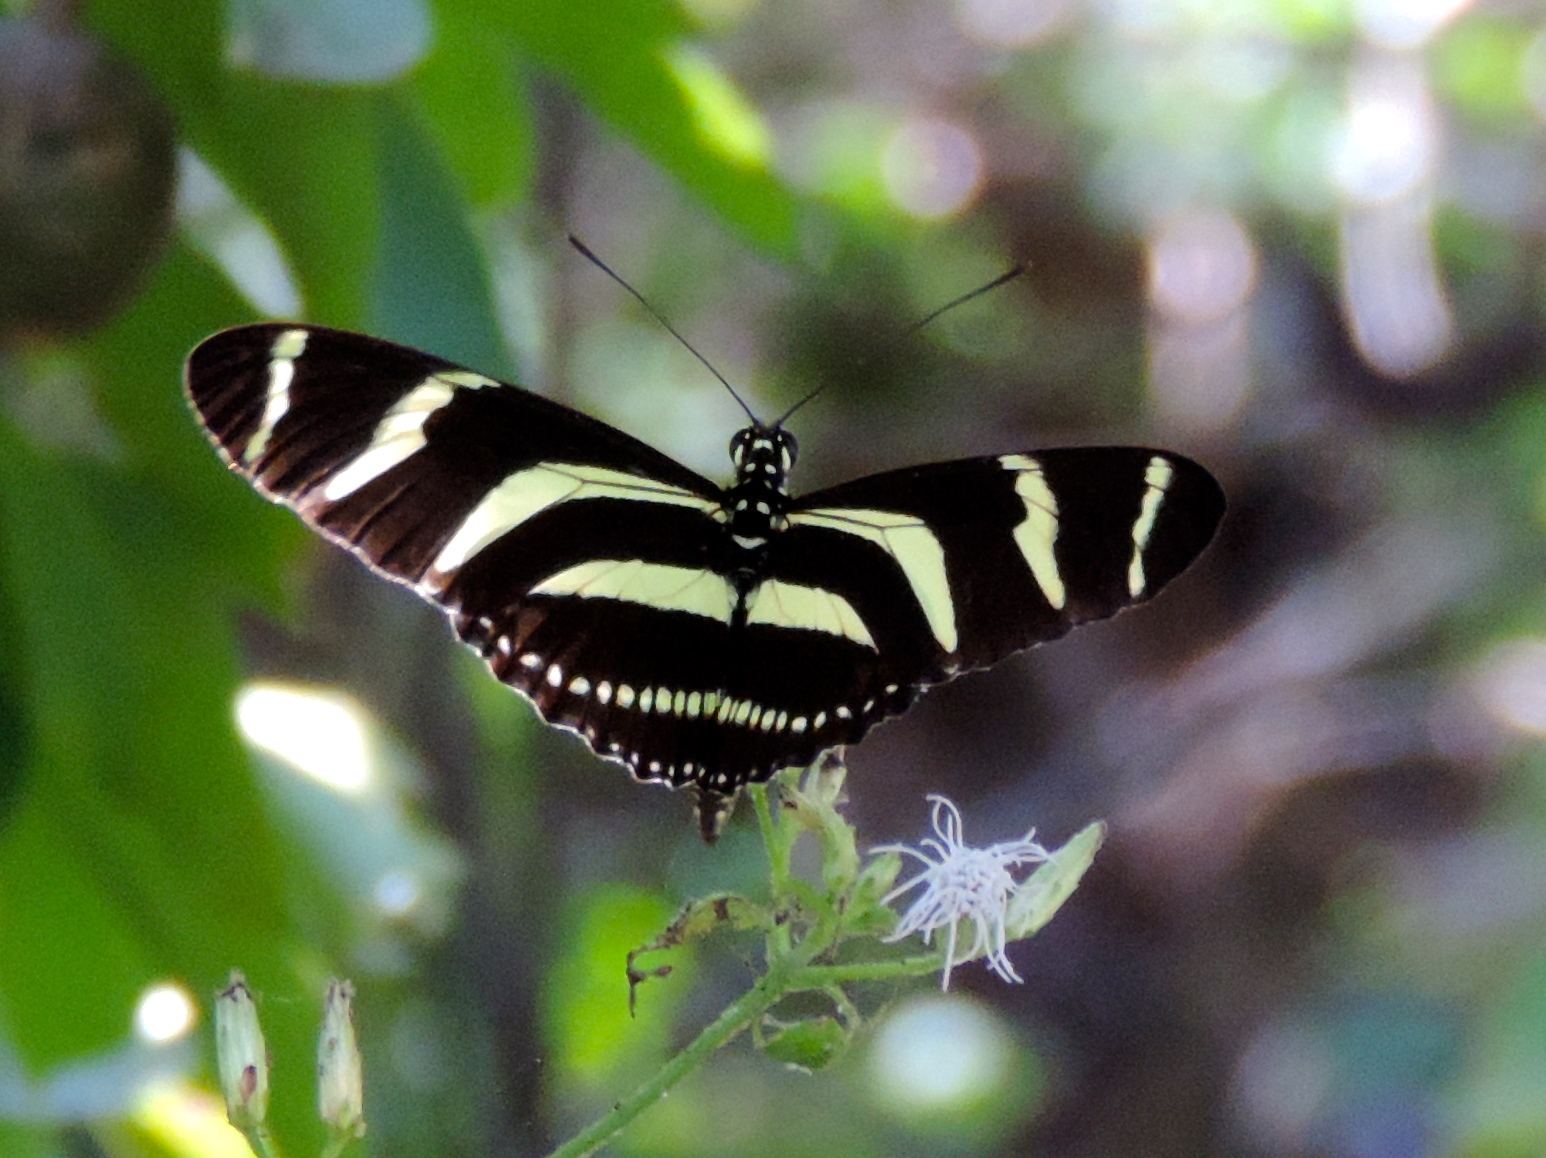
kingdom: Animalia
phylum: Arthropoda
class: Insecta
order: Lepidoptera
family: Nymphalidae
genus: Heliconius
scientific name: Heliconius charithonia
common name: Zebra long wing
